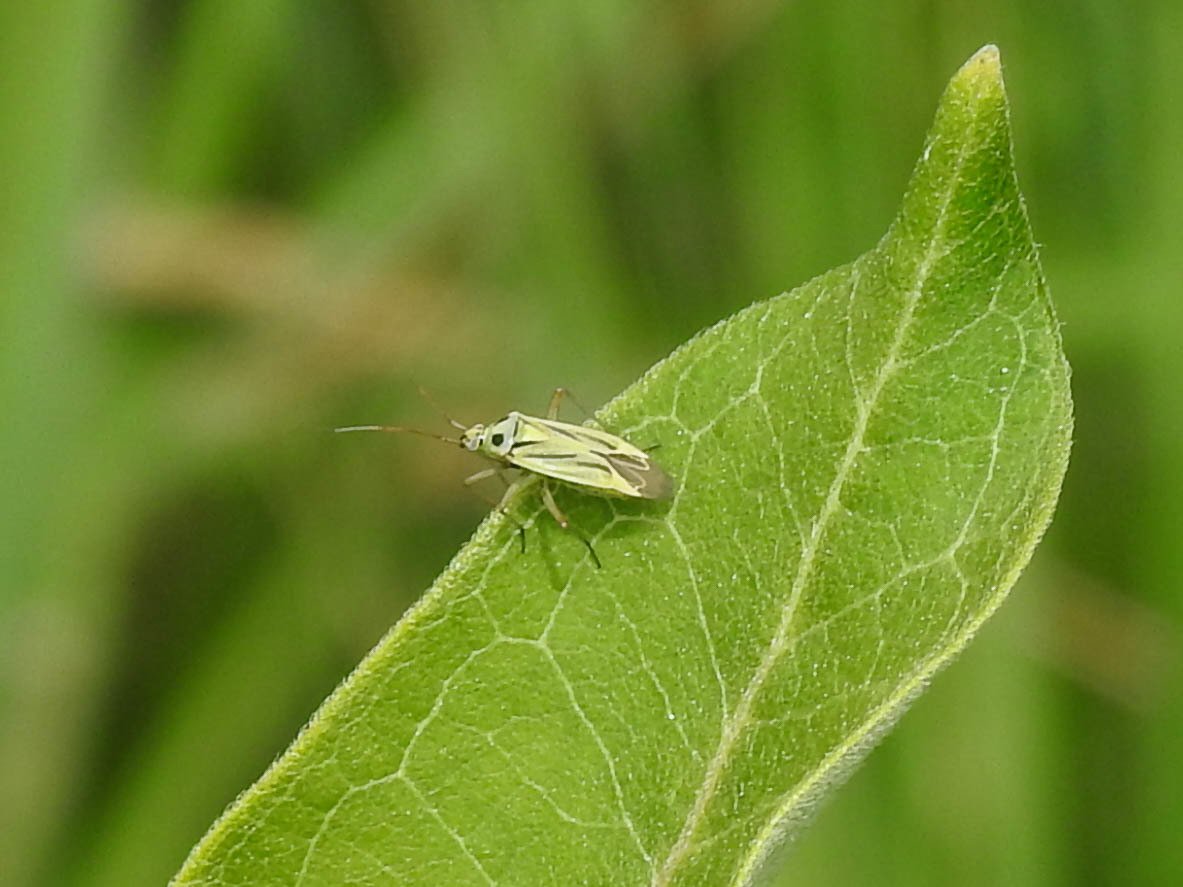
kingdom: Animalia
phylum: Arthropoda
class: Insecta
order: Hemiptera
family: Miridae
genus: Stenotus
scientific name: Stenotus binotatus
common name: Plant bug
